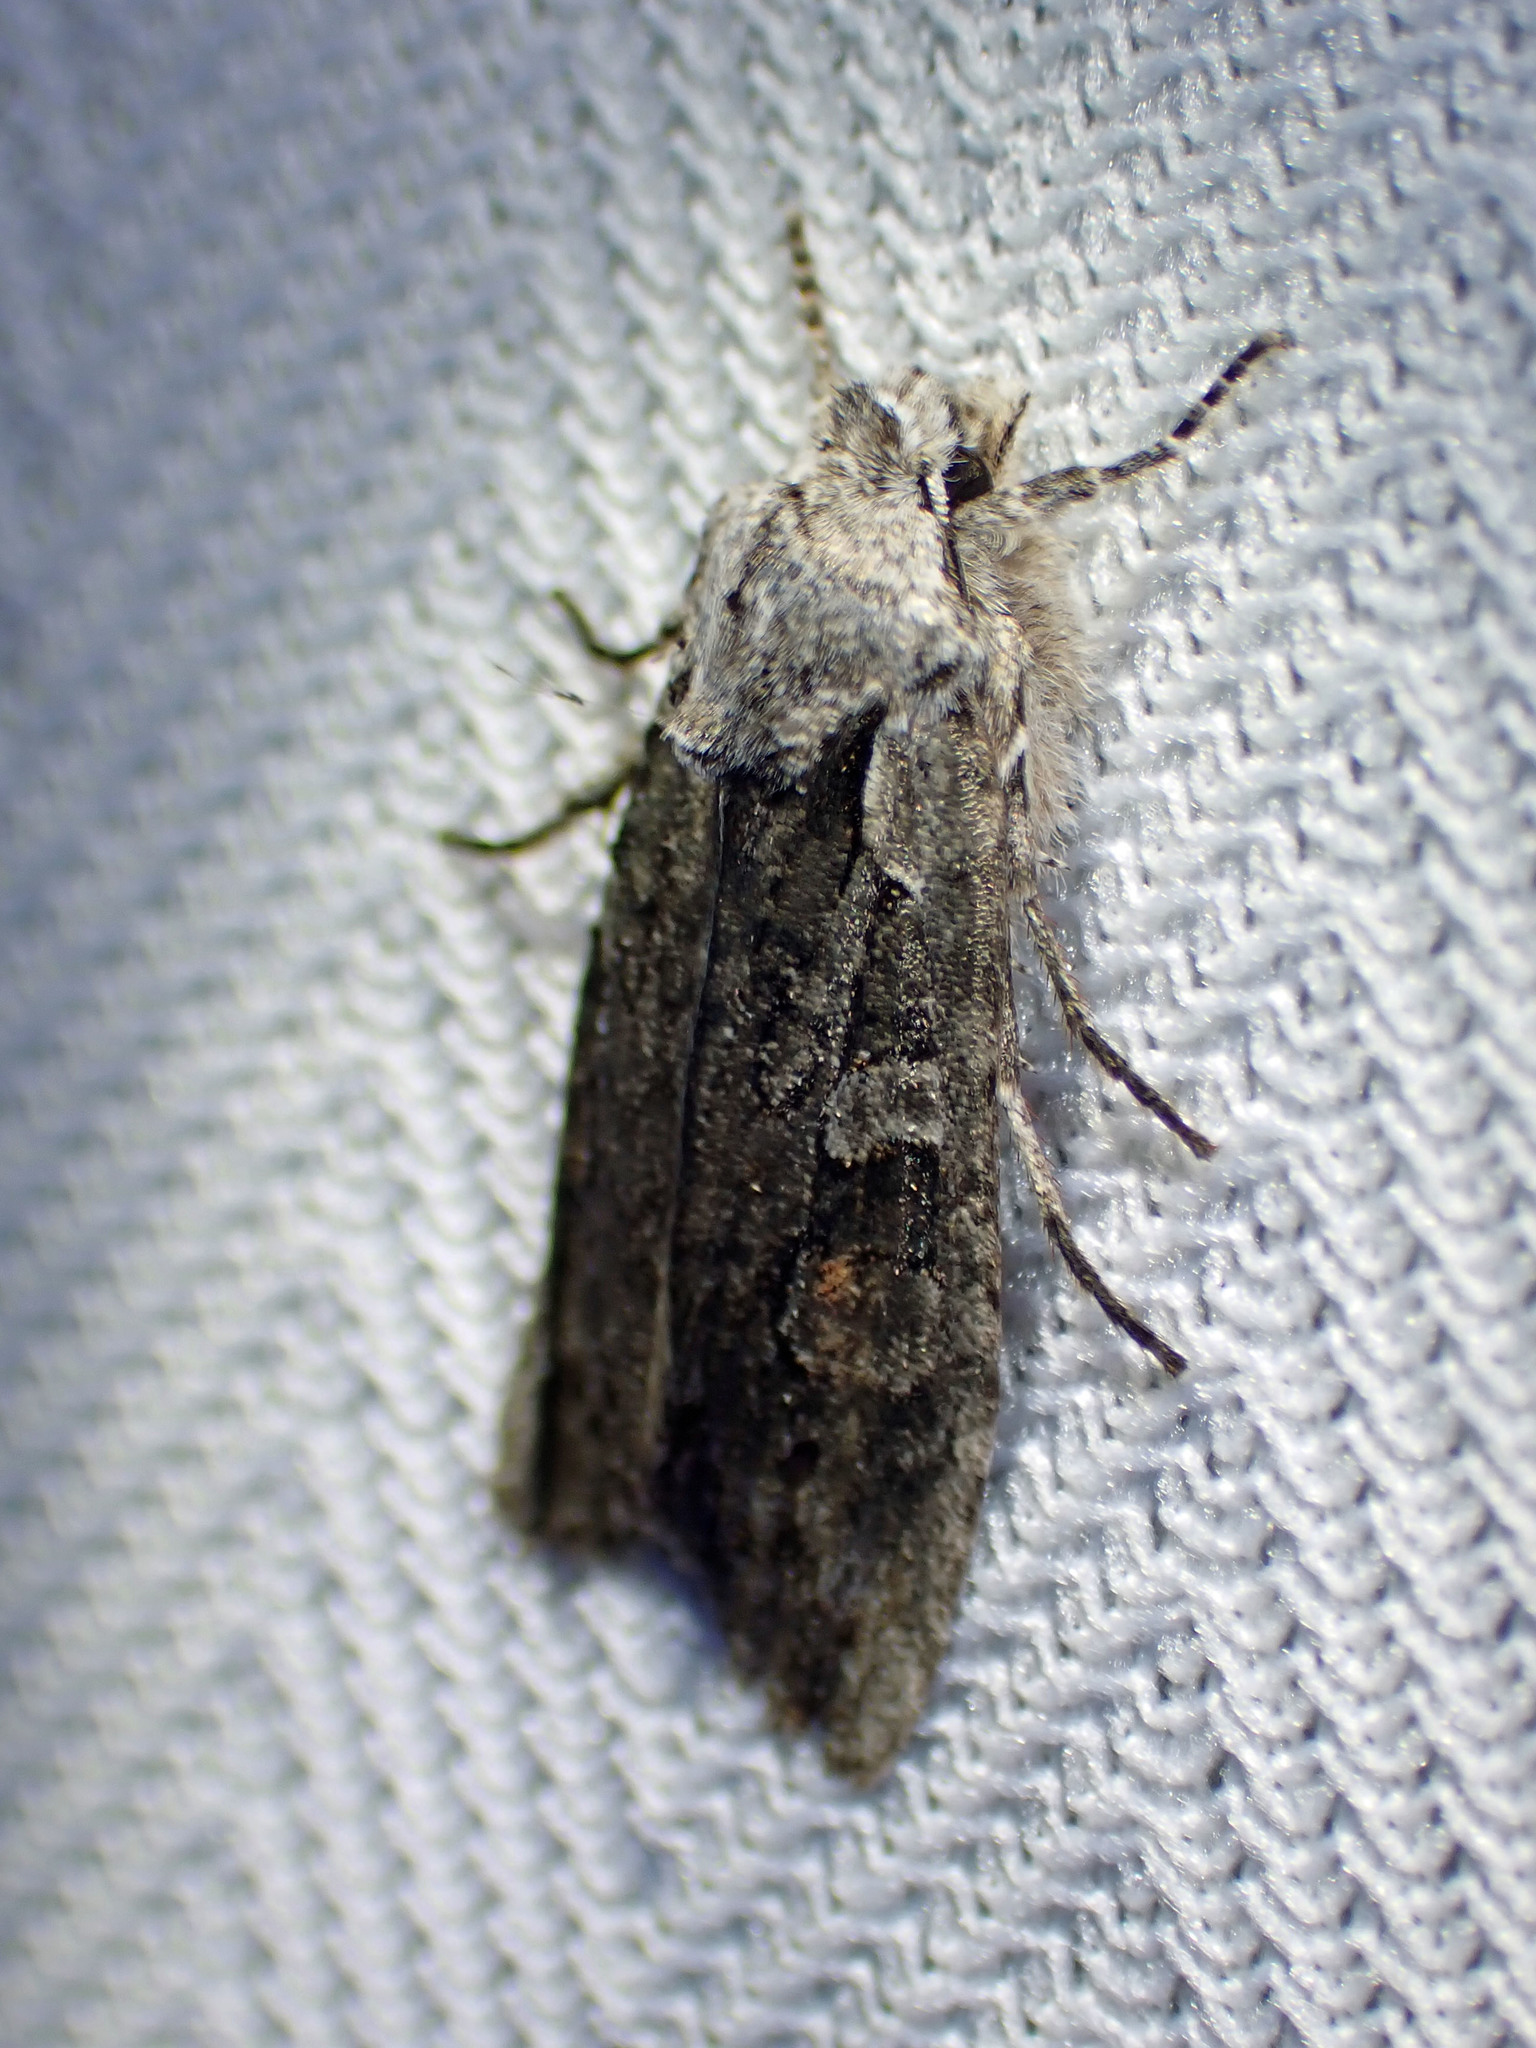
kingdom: Animalia
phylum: Arthropoda
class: Insecta
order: Lepidoptera
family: Noctuidae
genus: Lithophane
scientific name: Lithophane baileyi
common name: Bailey's pinion moth
